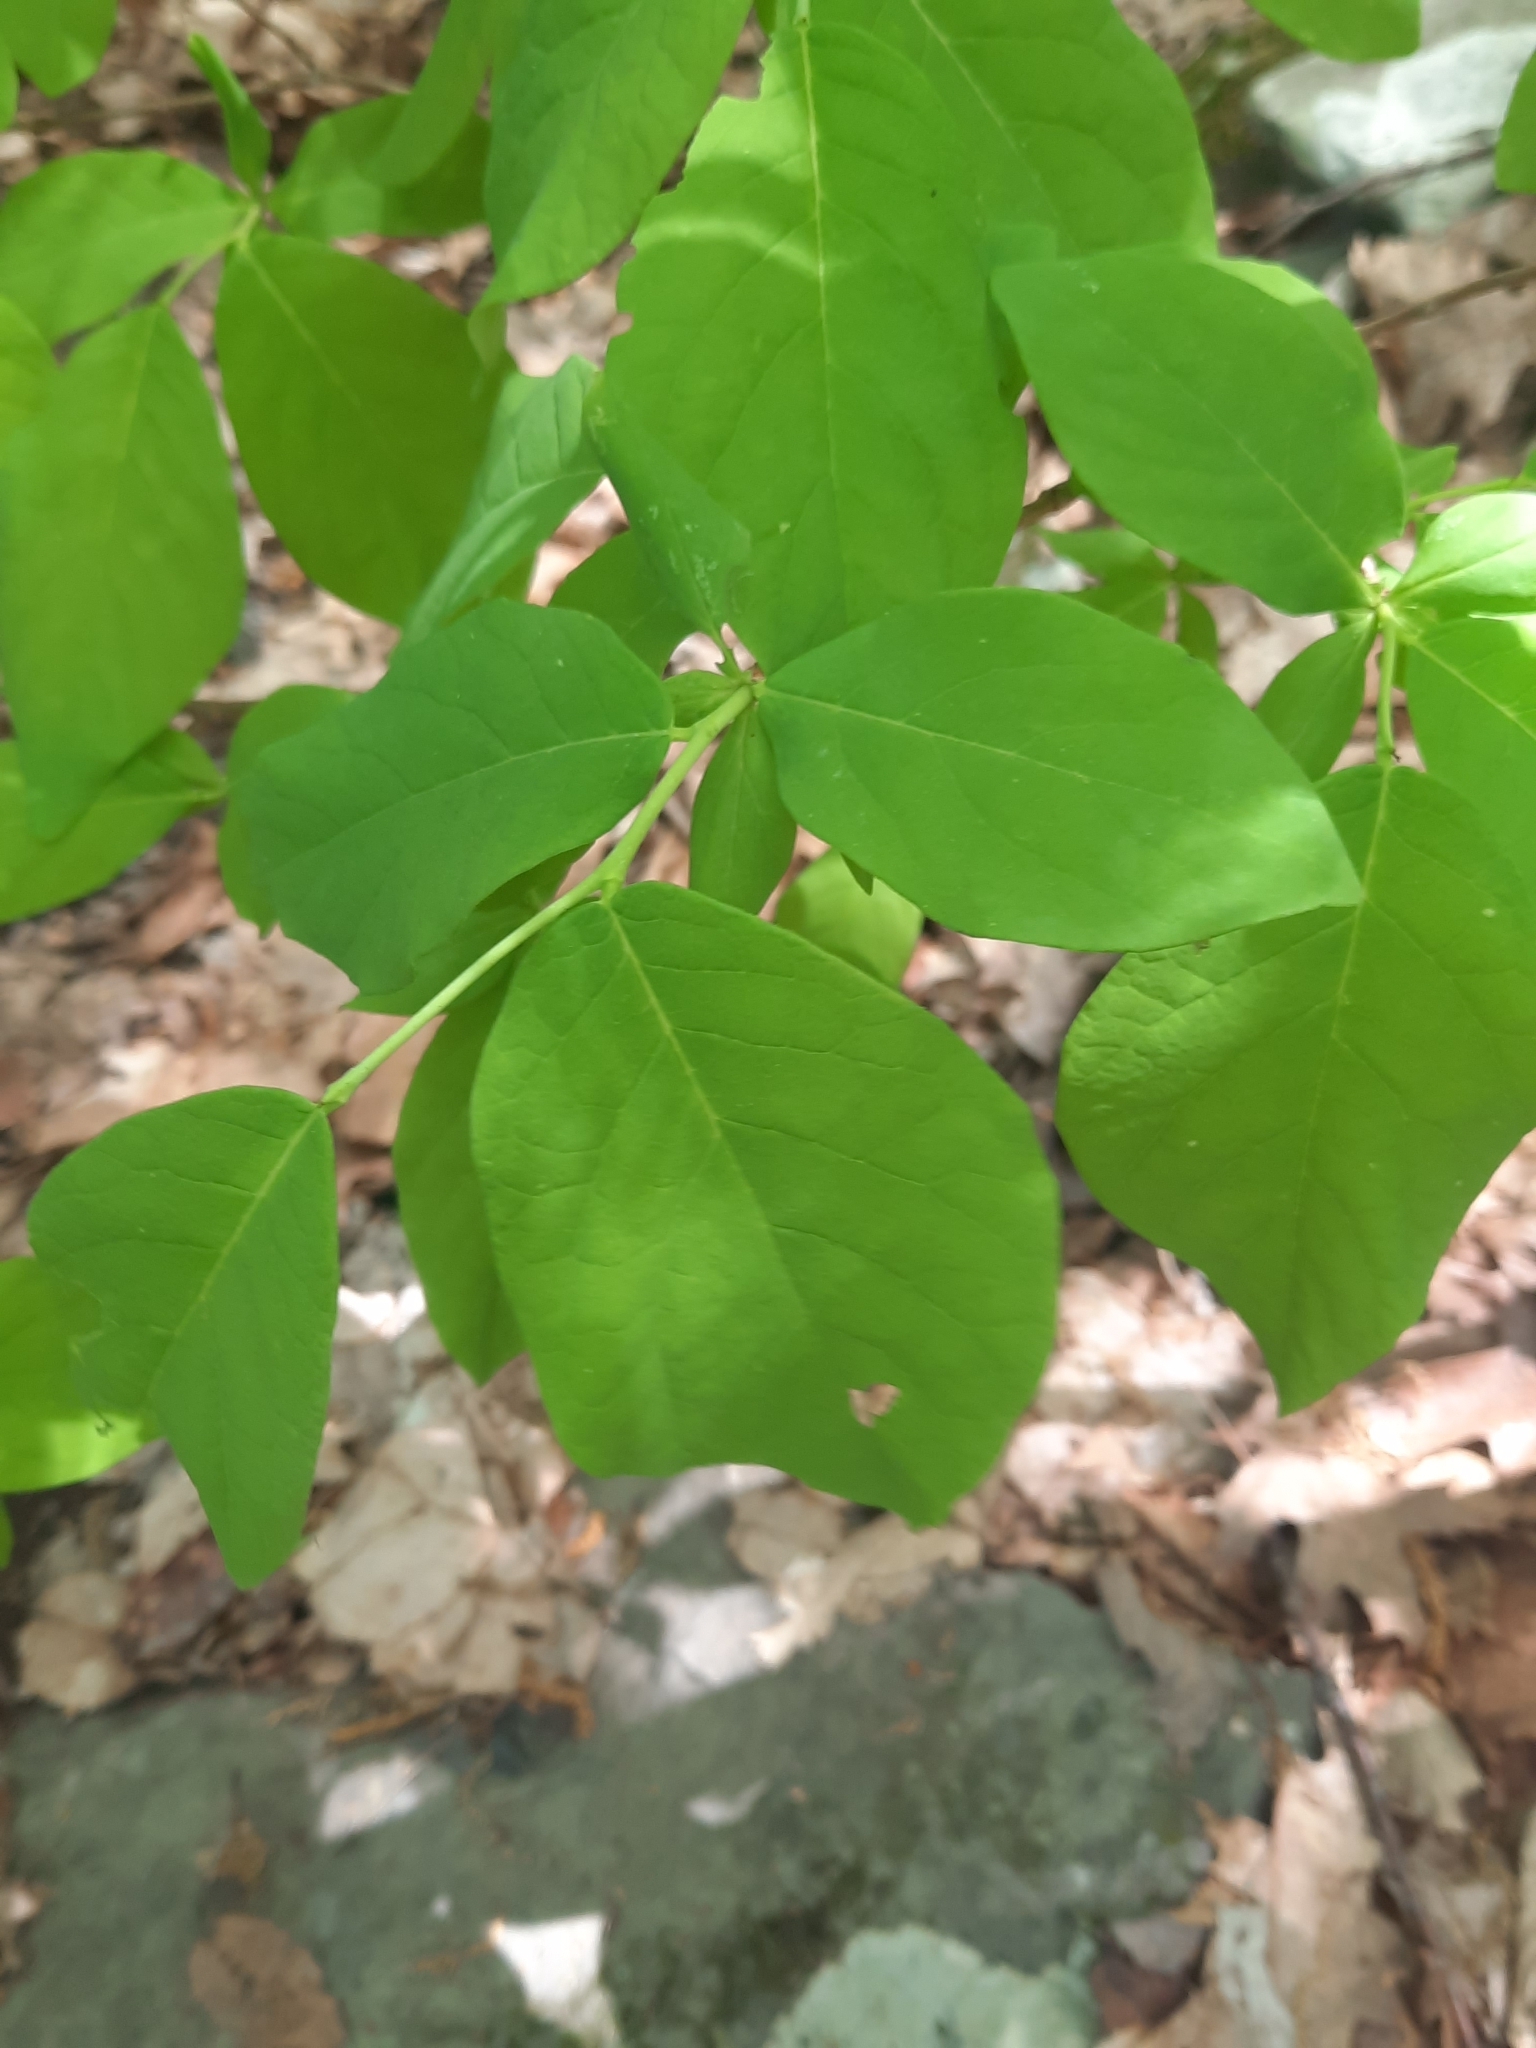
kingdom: Plantae
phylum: Tracheophyta
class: Magnoliopsida
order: Malvales
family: Thymelaeaceae
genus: Dirca
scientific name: Dirca palustris
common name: Leatherwood
